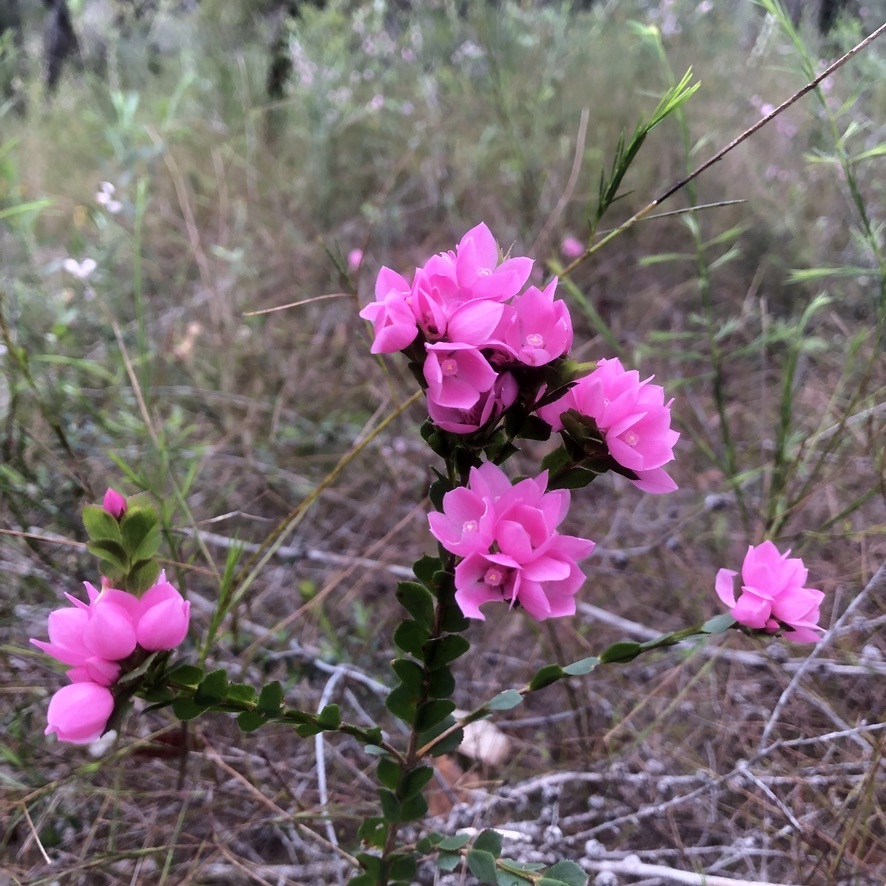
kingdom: Plantae
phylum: Tracheophyta
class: Magnoliopsida
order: Sapindales
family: Rutaceae
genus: Boronia
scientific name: Boronia serrulata
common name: Rose boronia
